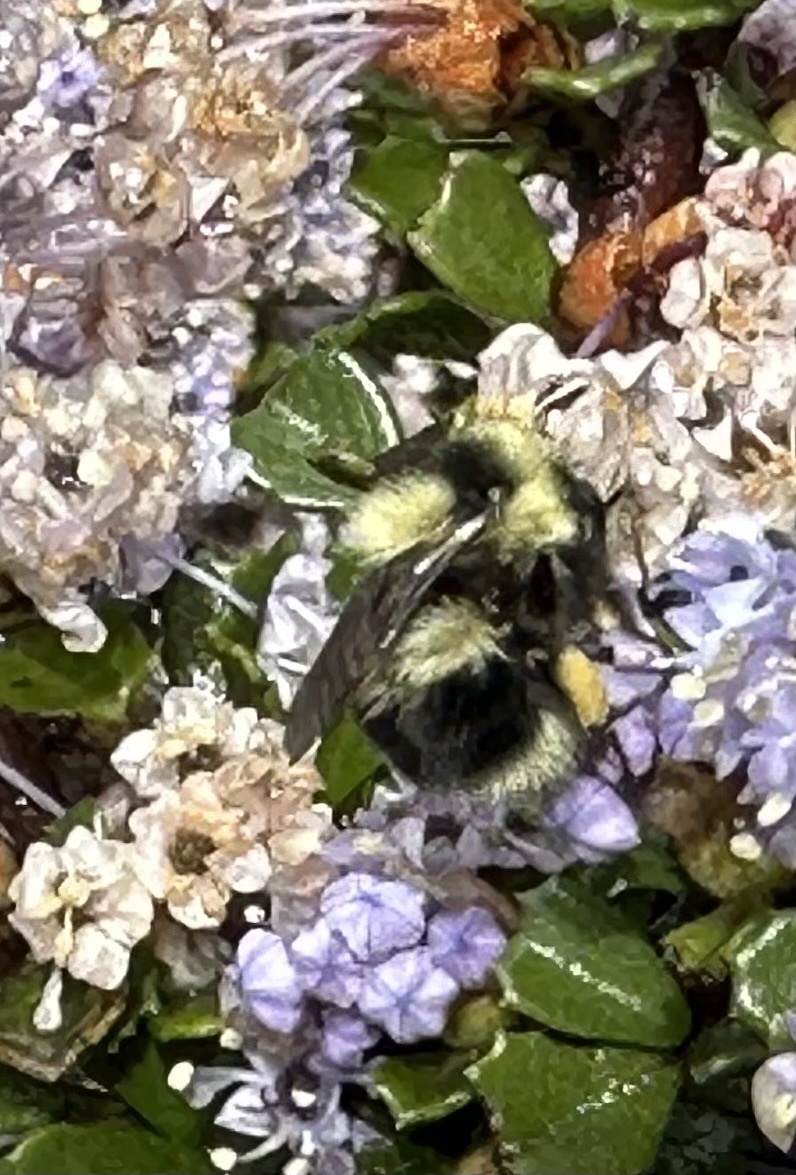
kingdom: Animalia
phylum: Arthropoda
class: Insecta
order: Hymenoptera
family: Apidae
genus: Bombus
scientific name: Bombus melanopygus
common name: Black tail bumble bee
